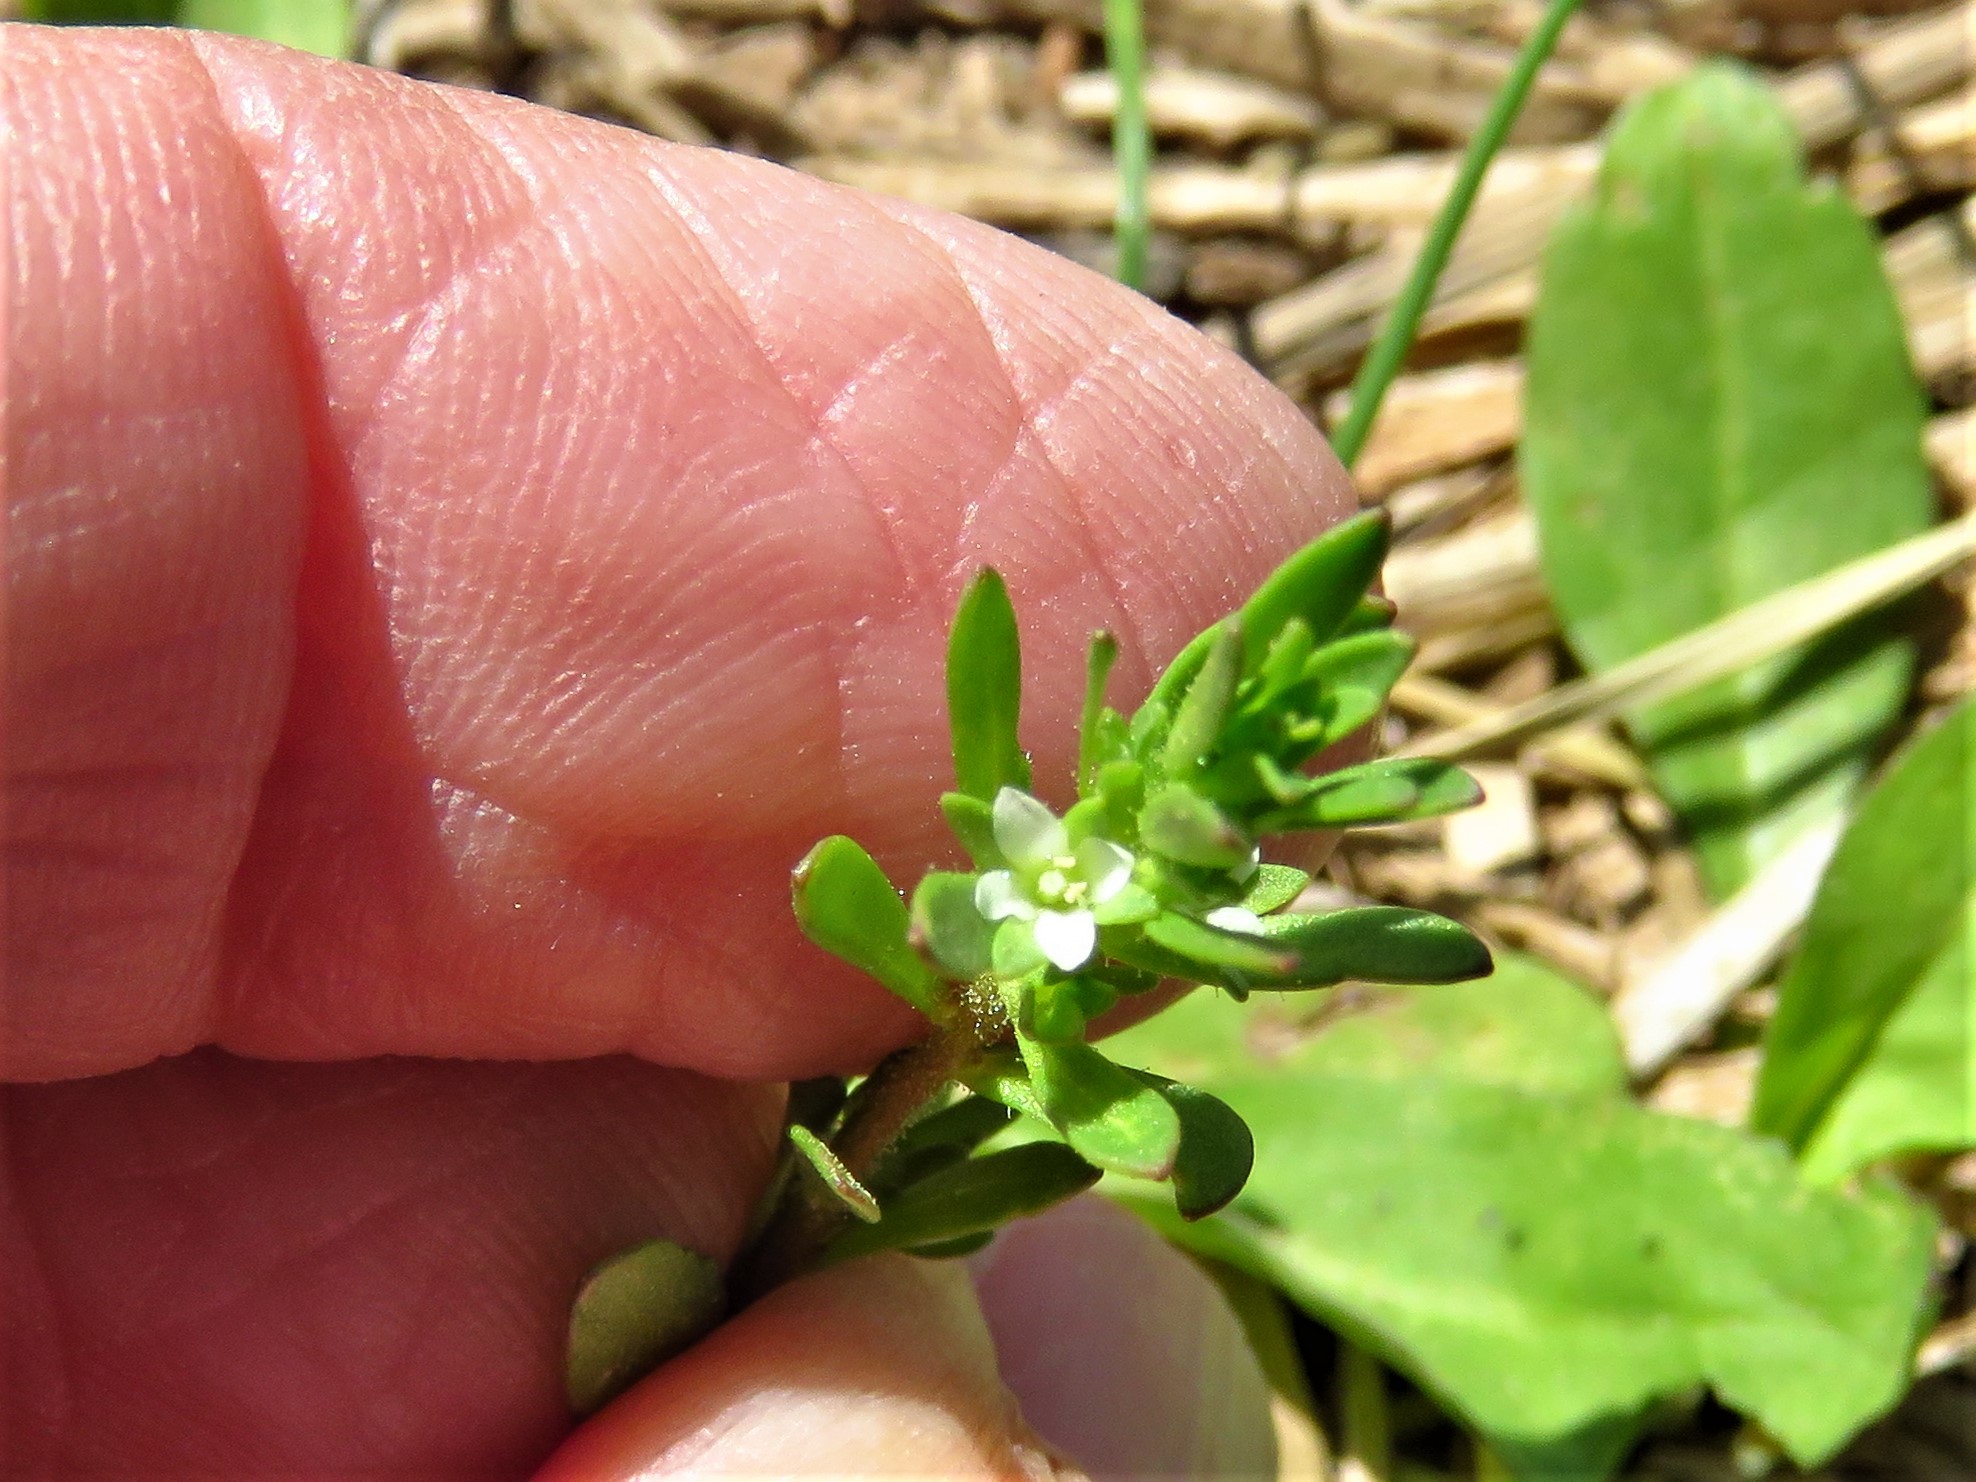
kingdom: Plantae
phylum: Tracheophyta
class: Magnoliopsida
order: Lamiales
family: Plantaginaceae
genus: Veronica
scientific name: Veronica peregrina
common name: Neckweed
